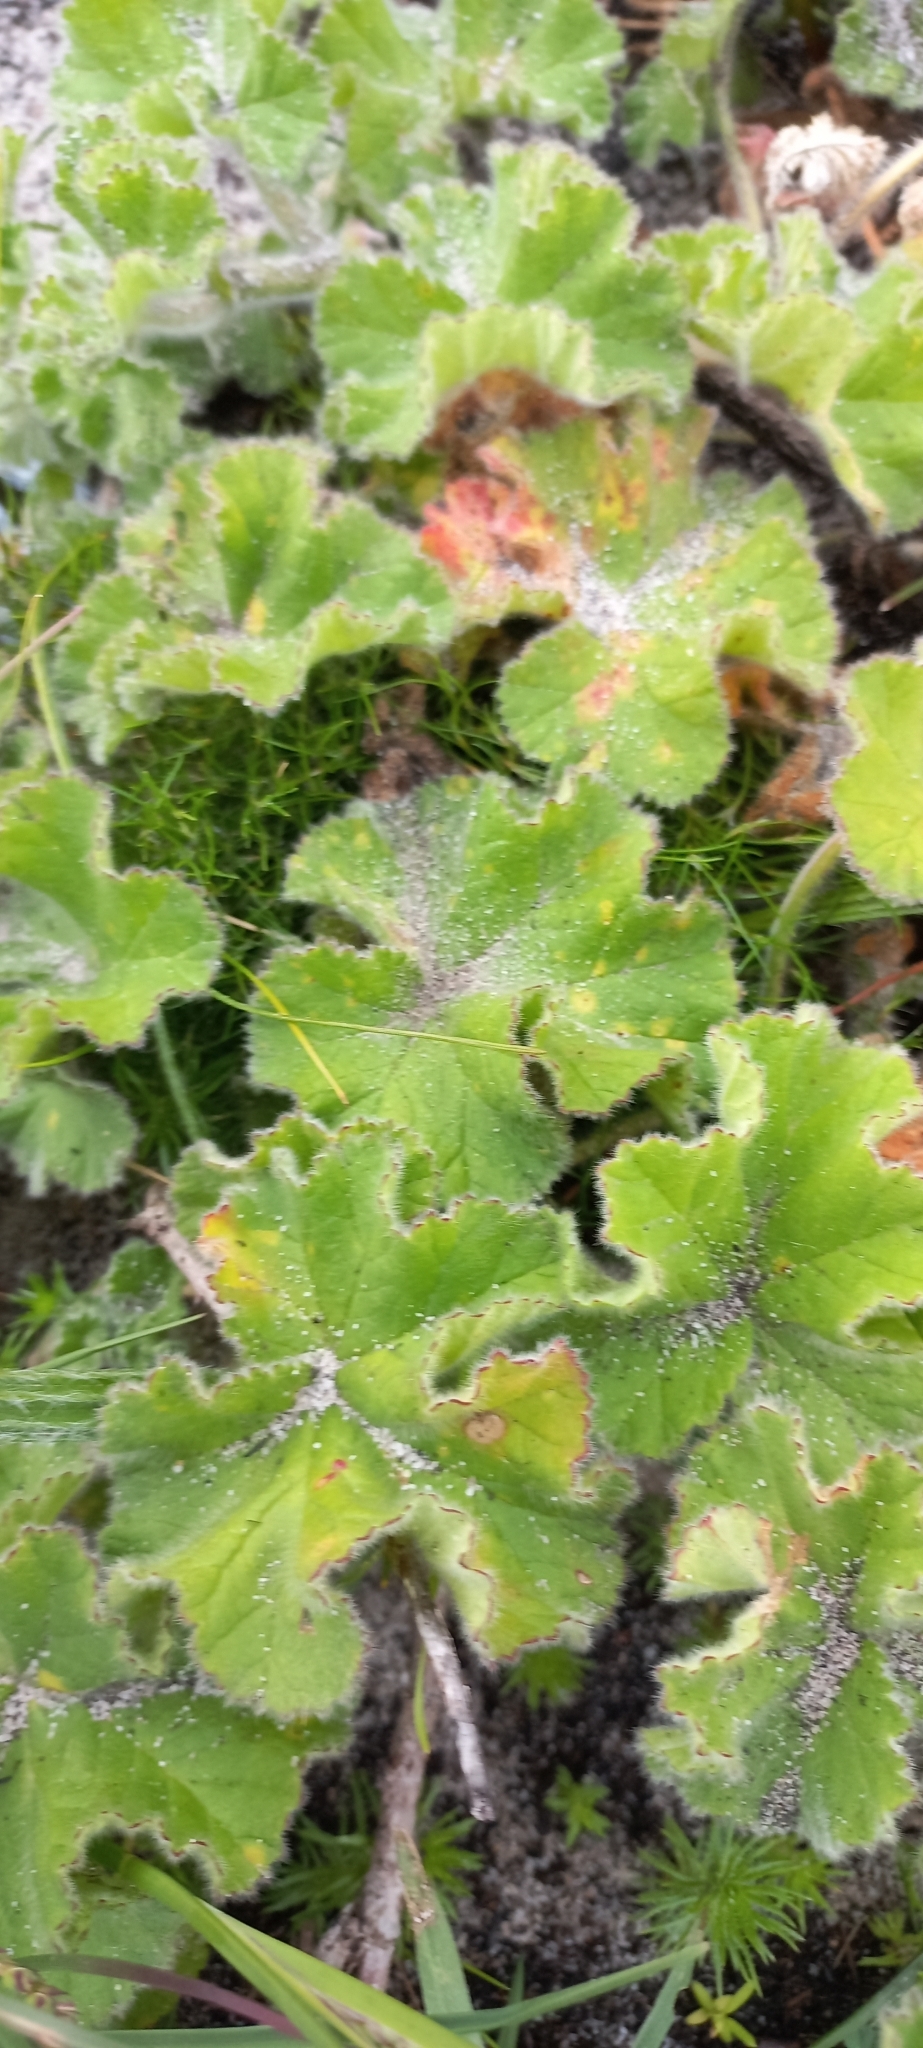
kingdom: Plantae
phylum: Tracheophyta
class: Magnoliopsida
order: Geraniales
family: Geraniaceae
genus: Pelargonium
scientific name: Pelargonium capitatum
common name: Rose scented geranium
